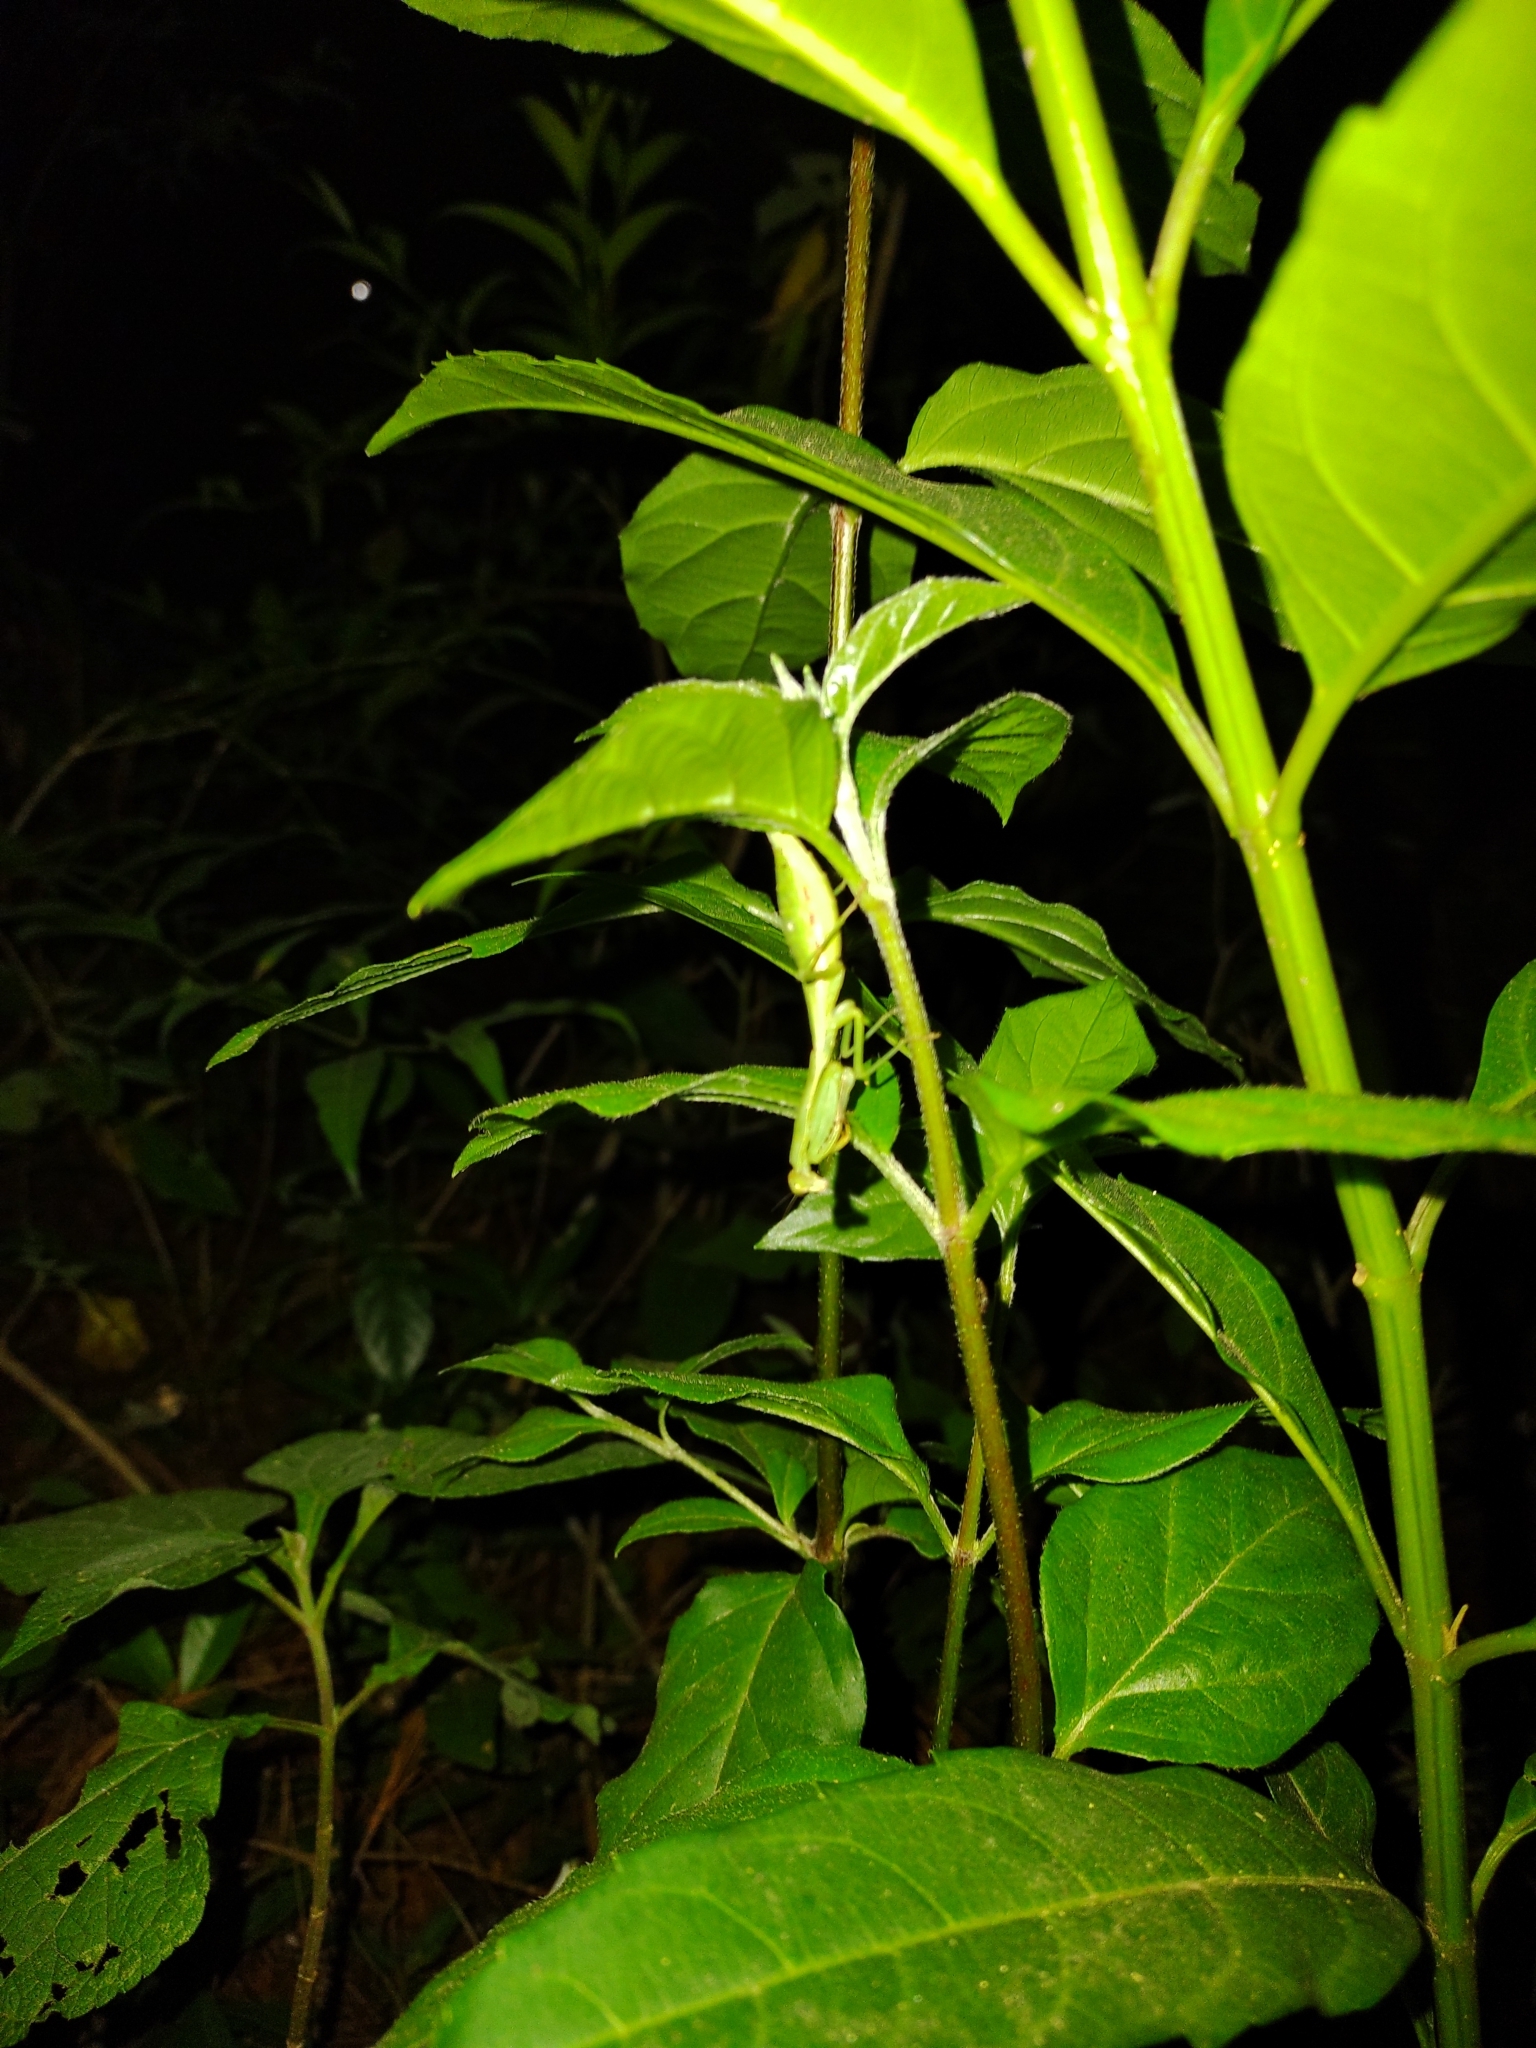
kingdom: Animalia
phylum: Arthropoda
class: Insecta
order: Mantodea
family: Mantidae
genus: Stagmomantis
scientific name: Stagmomantis nahua
